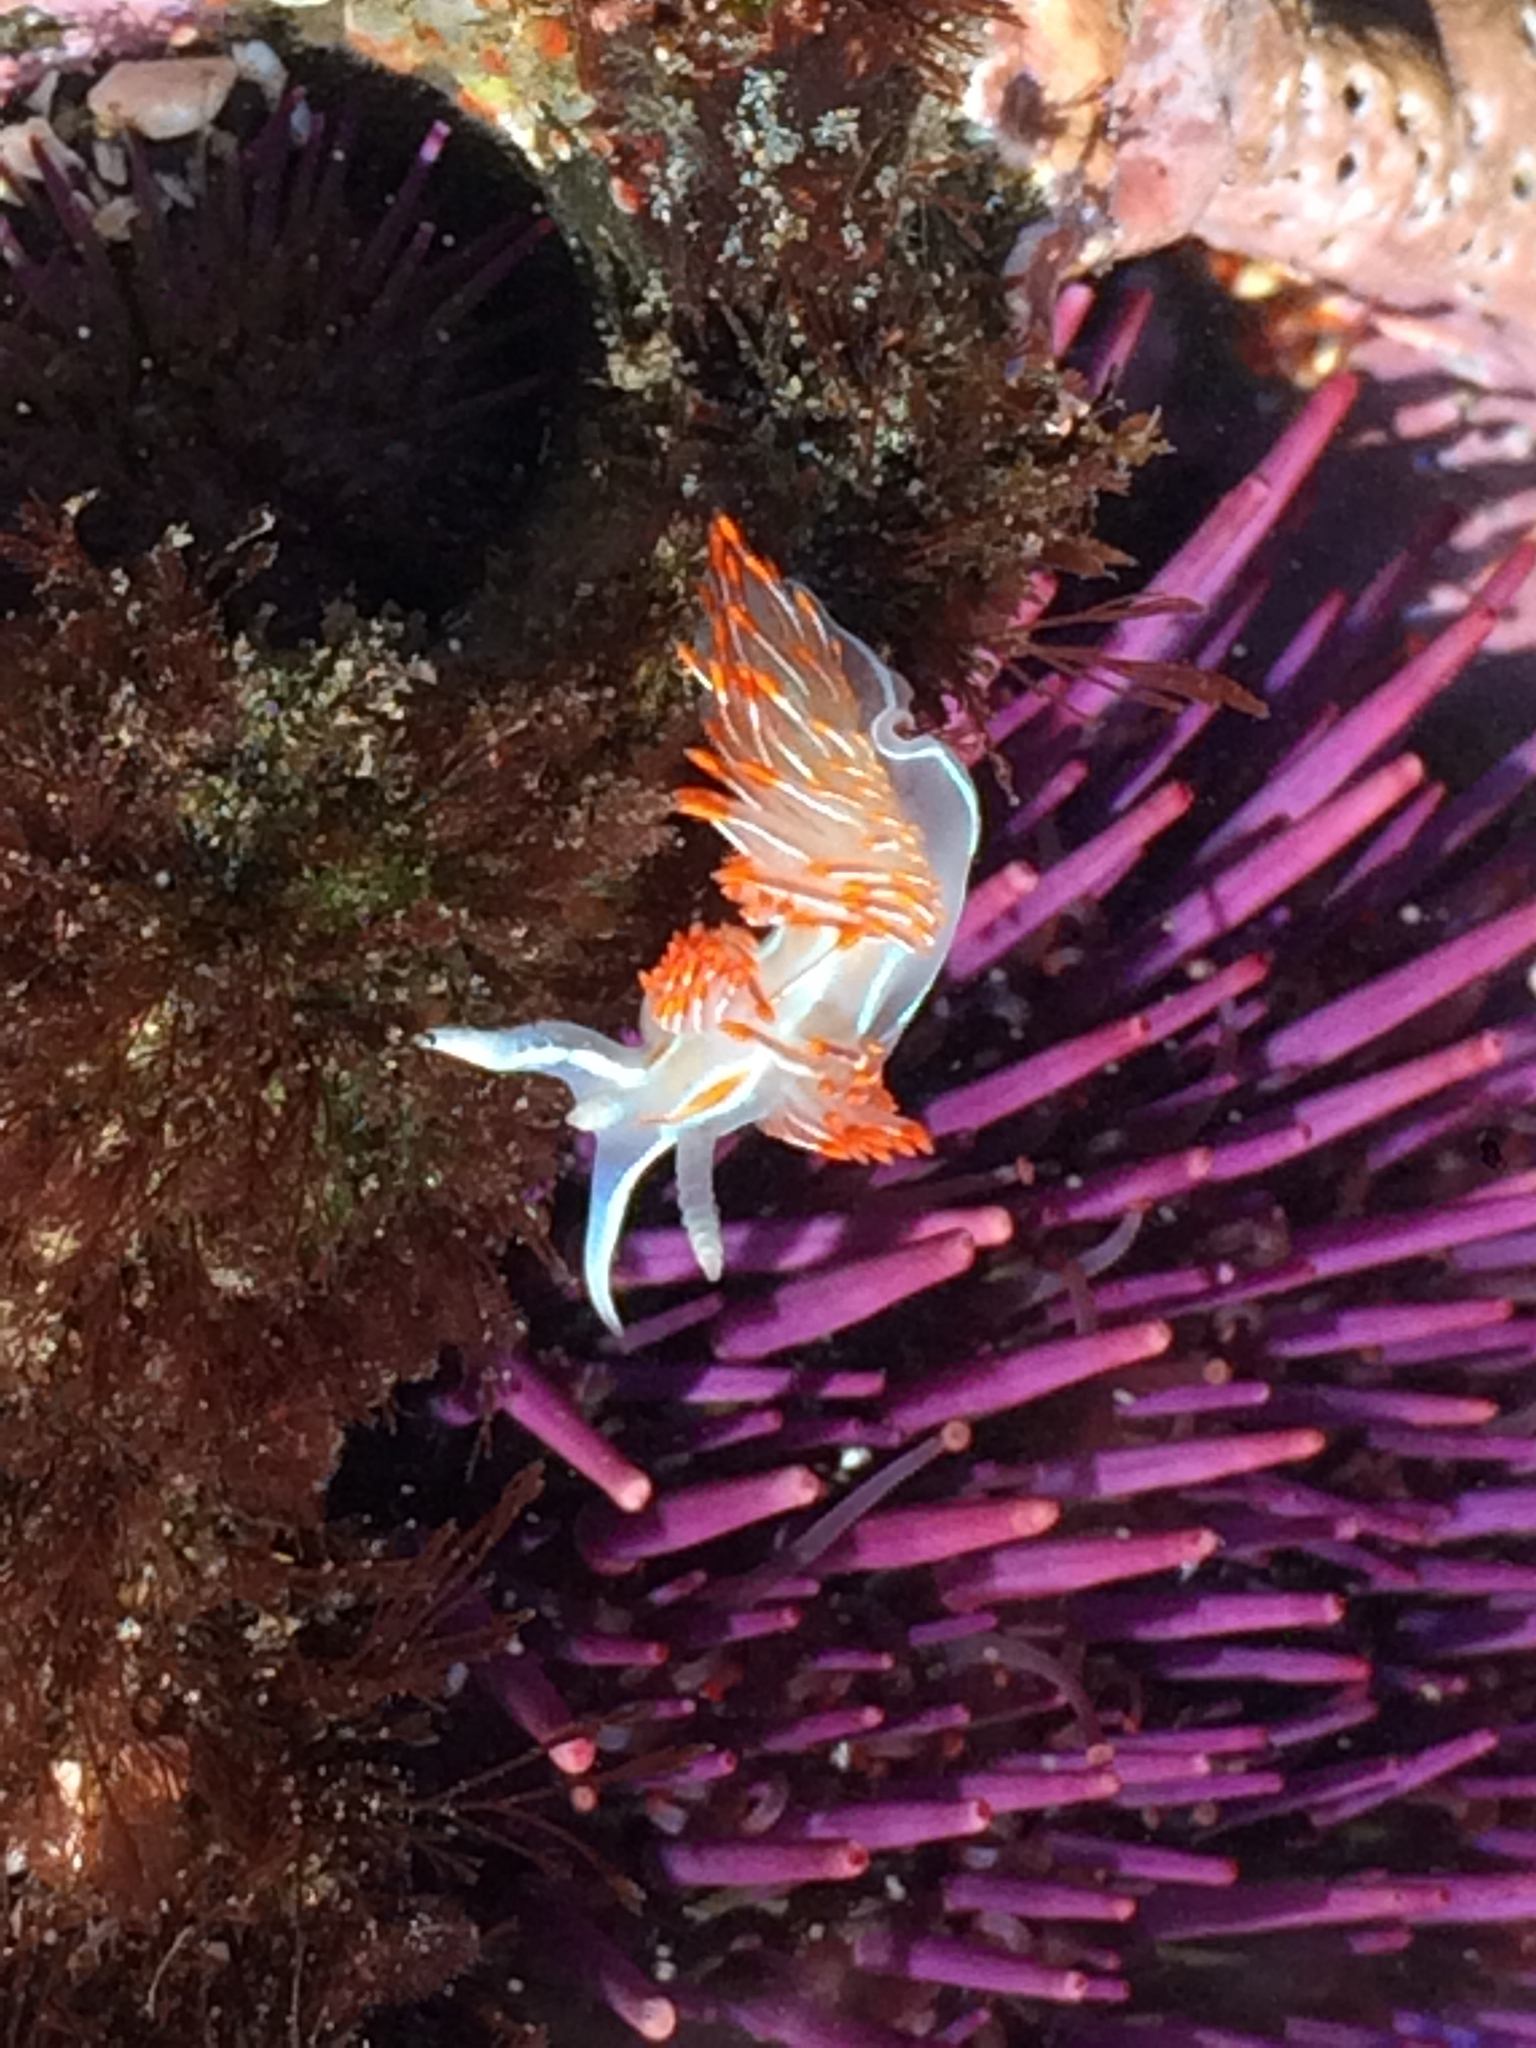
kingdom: Animalia
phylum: Mollusca
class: Gastropoda
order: Nudibranchia
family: Myrrhinidae
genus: Hermissenda
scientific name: Hermissenda crassicornis
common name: Hermissenda
